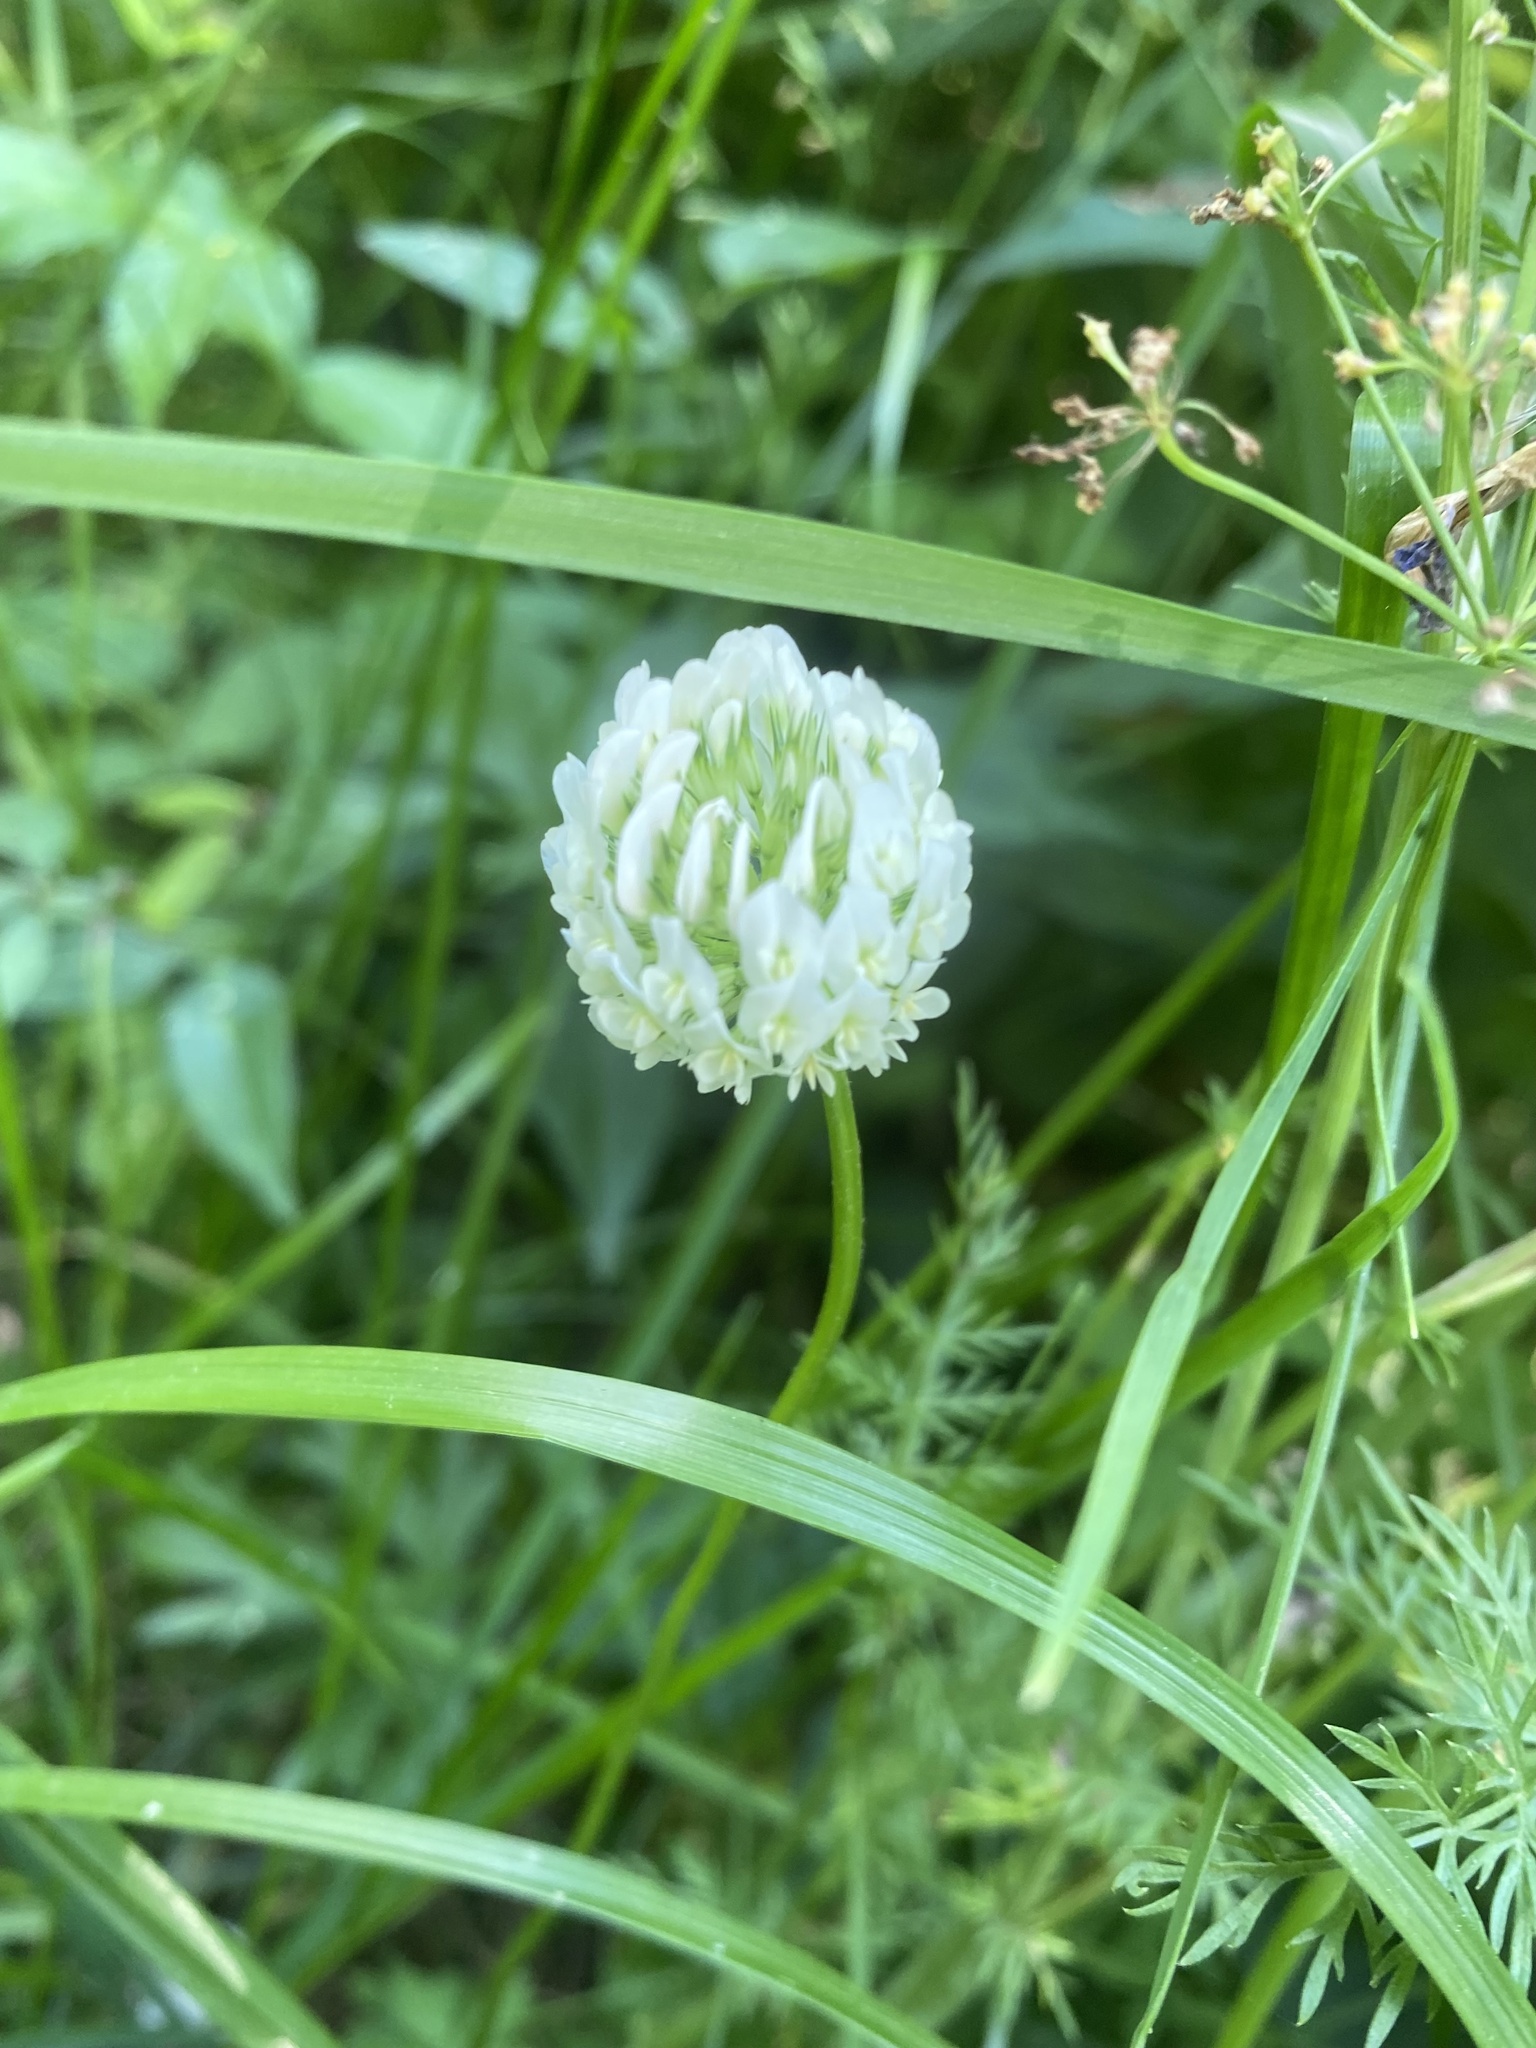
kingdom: Plantae
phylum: Tracheophyta
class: Magnoliopsida
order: Fabales
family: Fabaceae
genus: Trifolium
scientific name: Trifolium repens
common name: White clover
